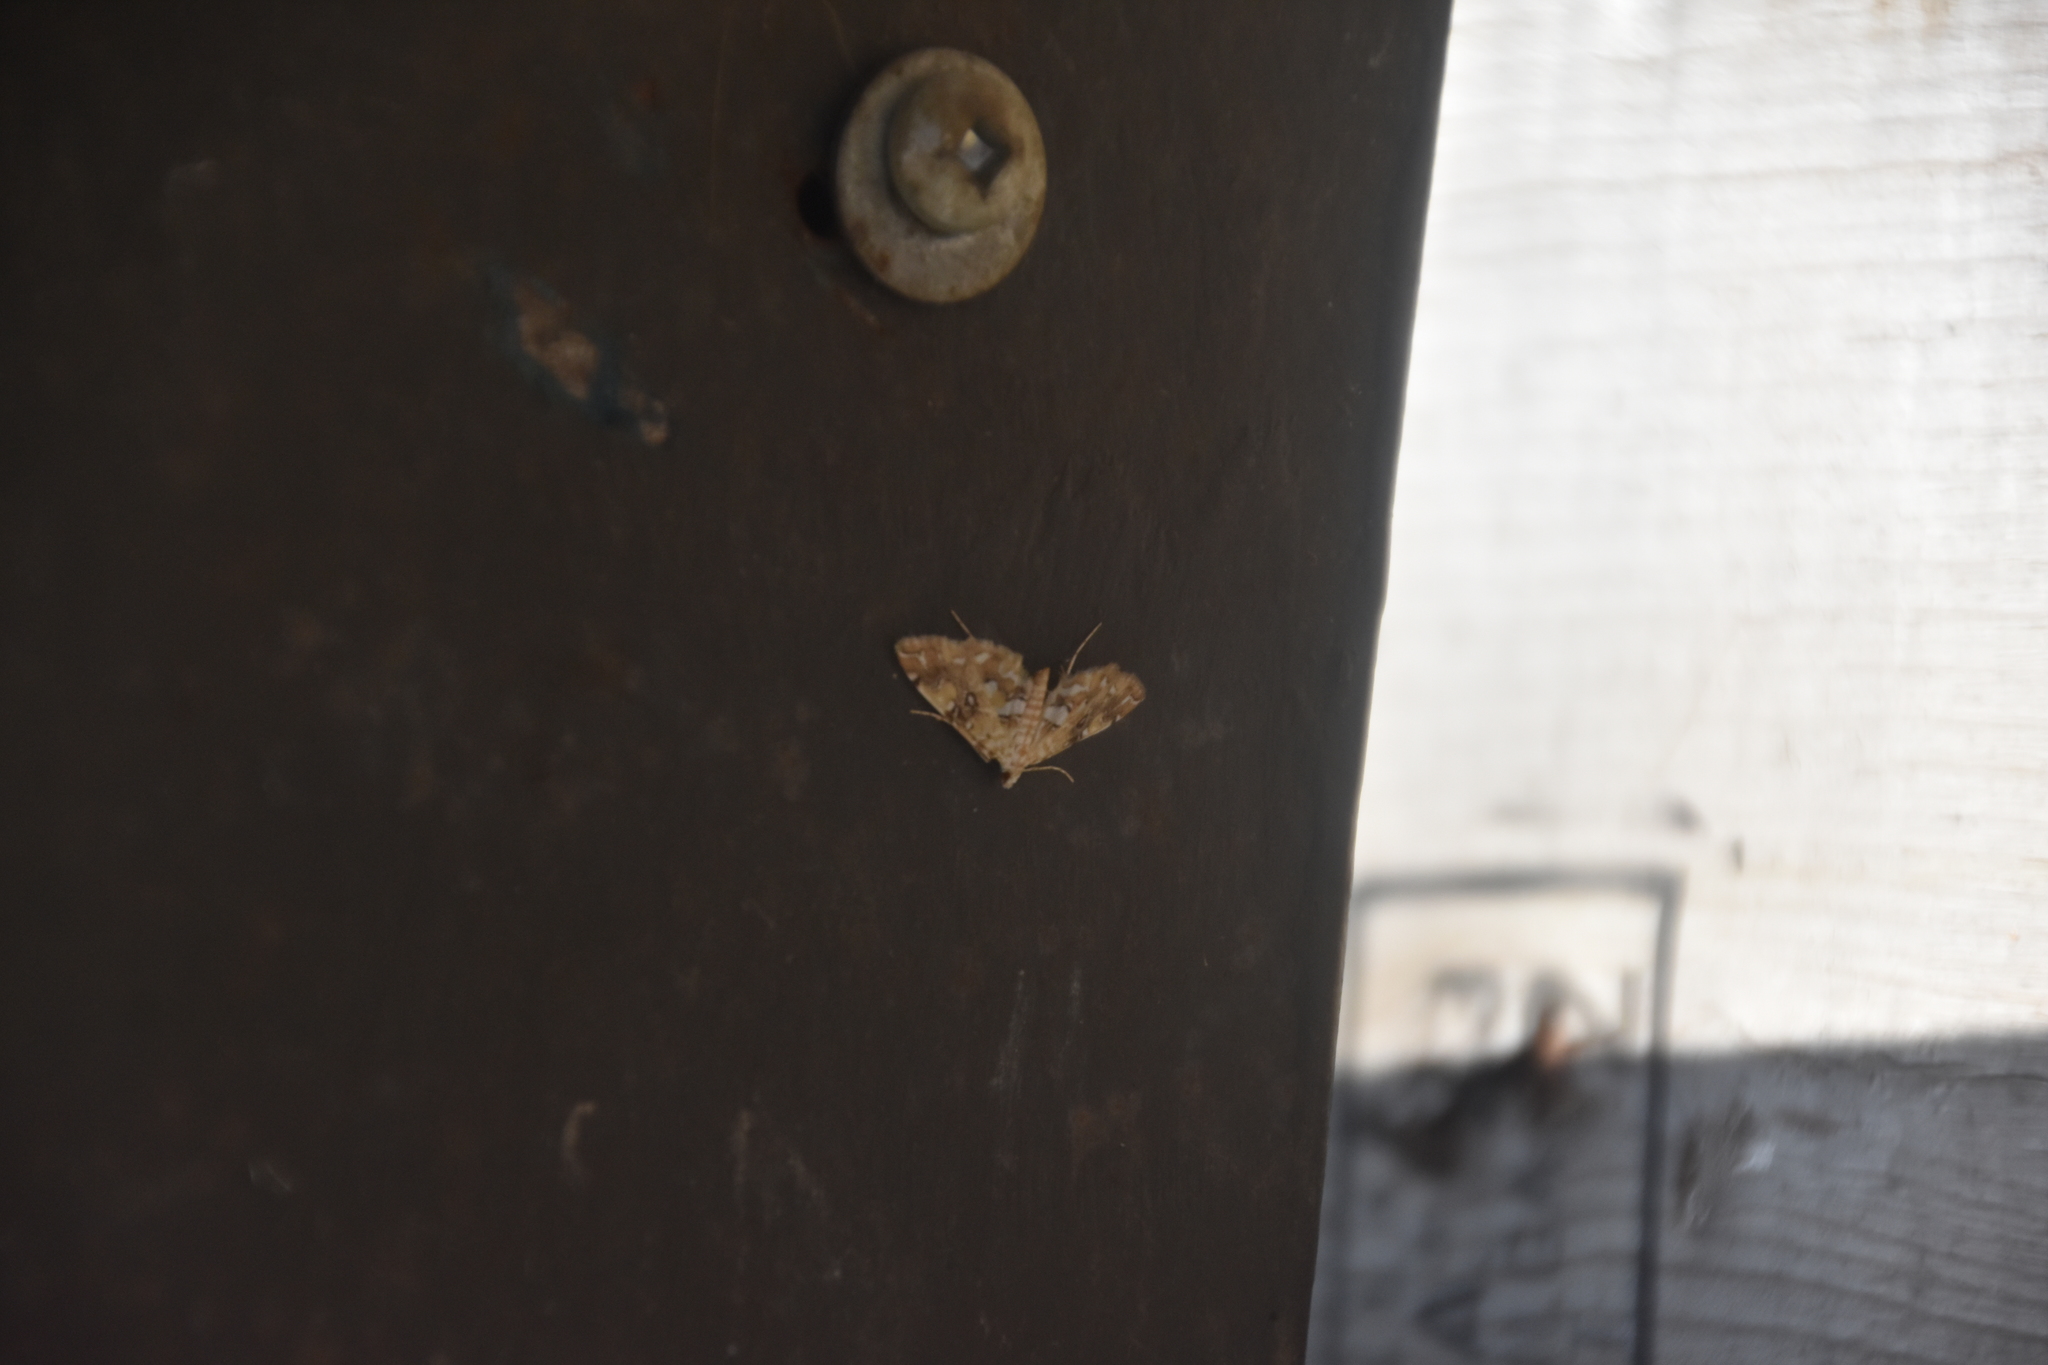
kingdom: Animalia
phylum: Arthropoda
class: Insecta
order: Lepidoptera
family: Crambidae
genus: Elophila
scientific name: Elophila icciusalis
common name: Pondside pyralid moth
